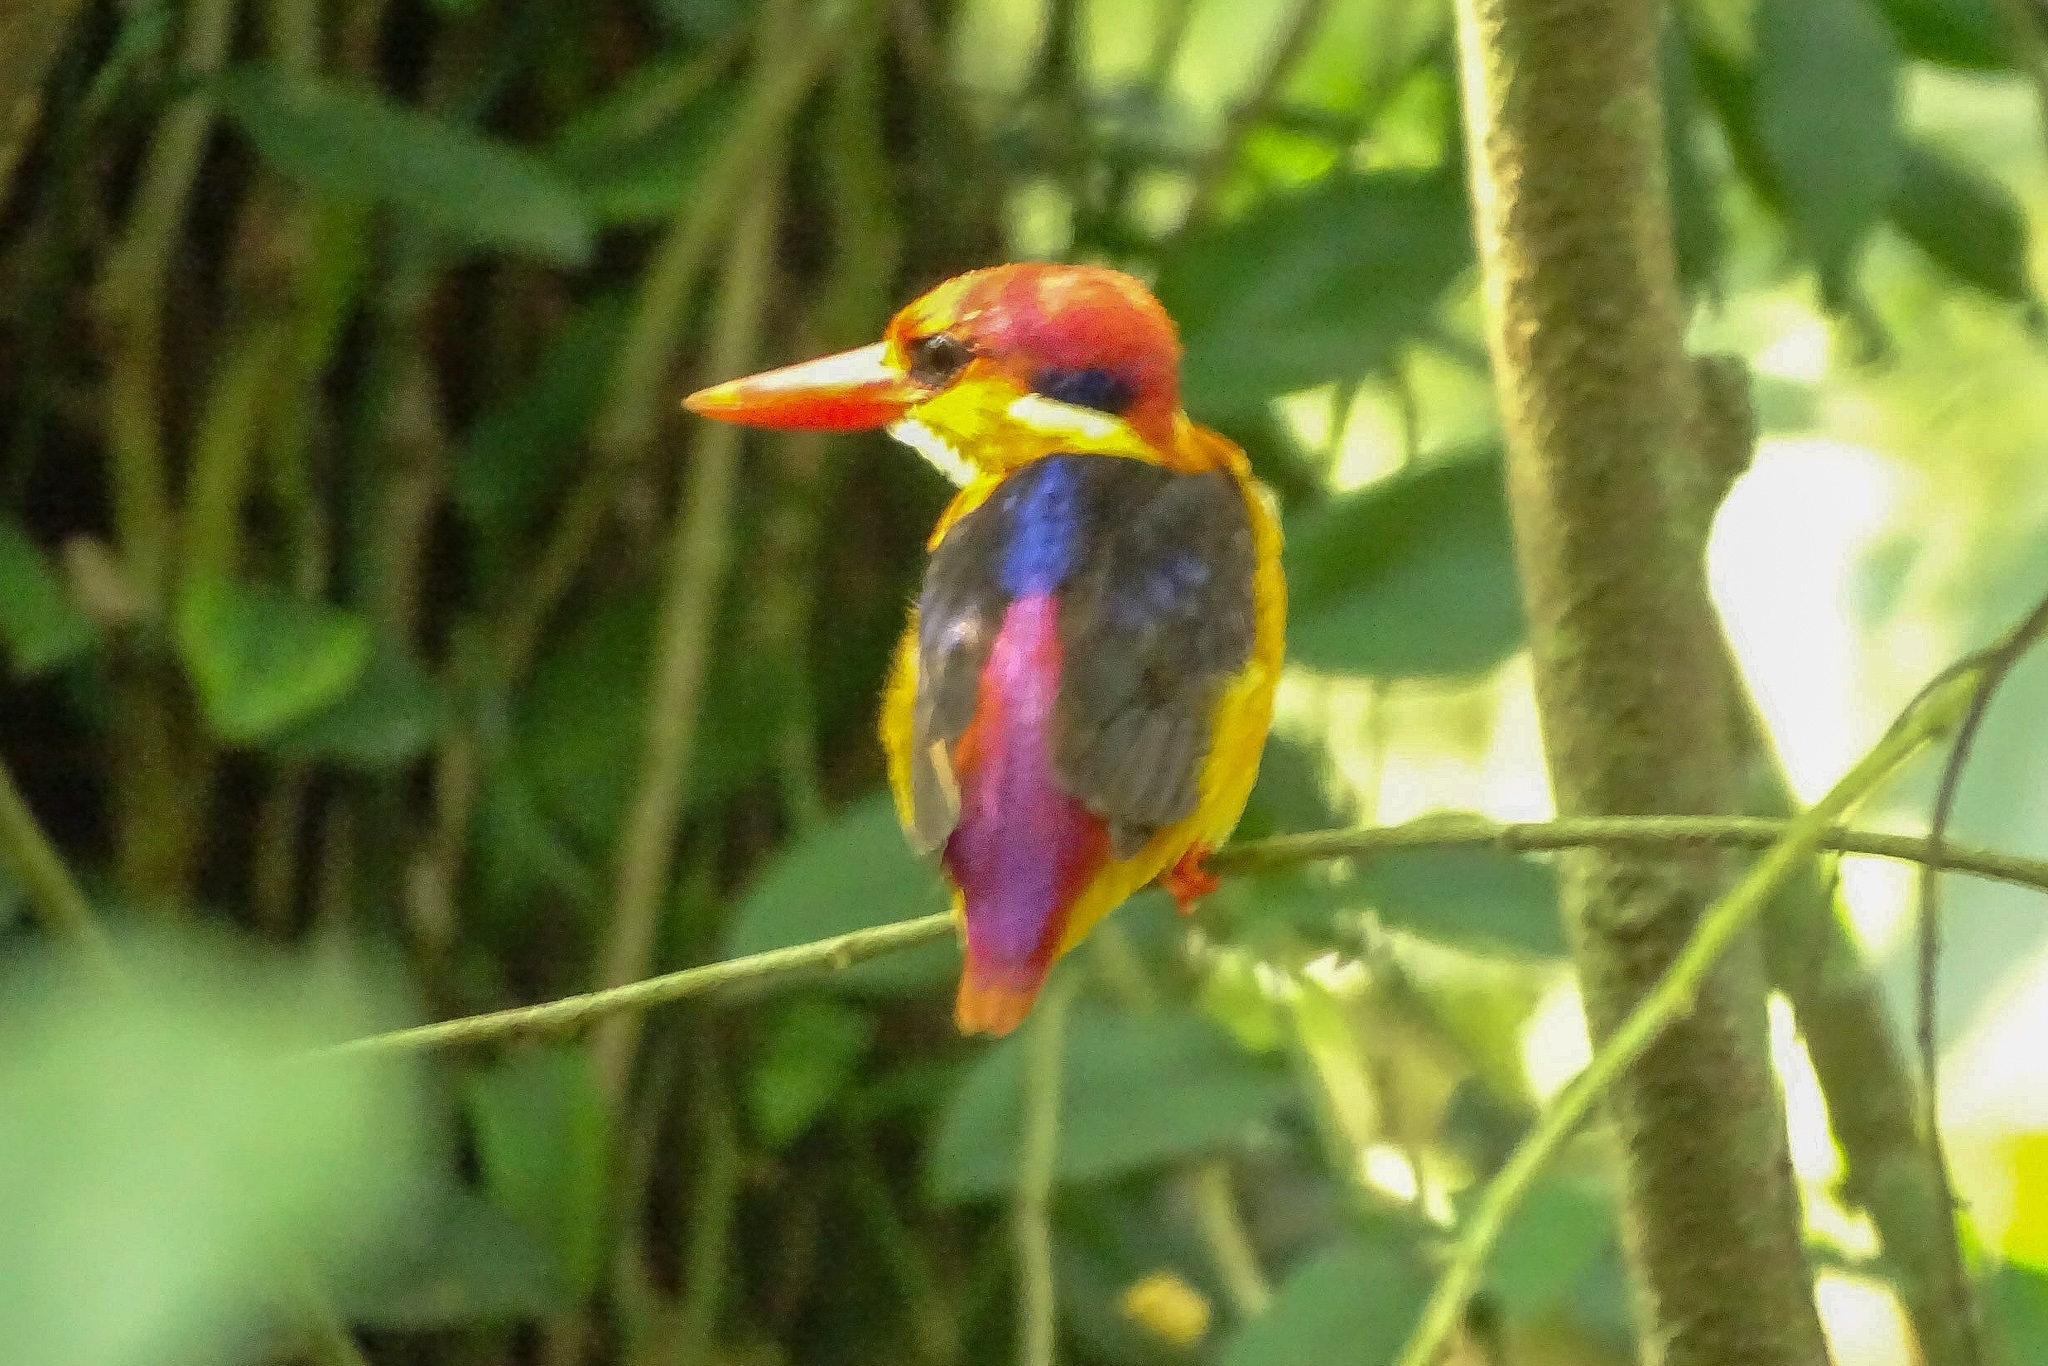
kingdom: Animalia
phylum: Chordata
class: Aves
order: Coraciiformes
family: Alcedinidae
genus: Ceyx
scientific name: Ceyx erithaca
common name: Oriental dwarf kingfisher
